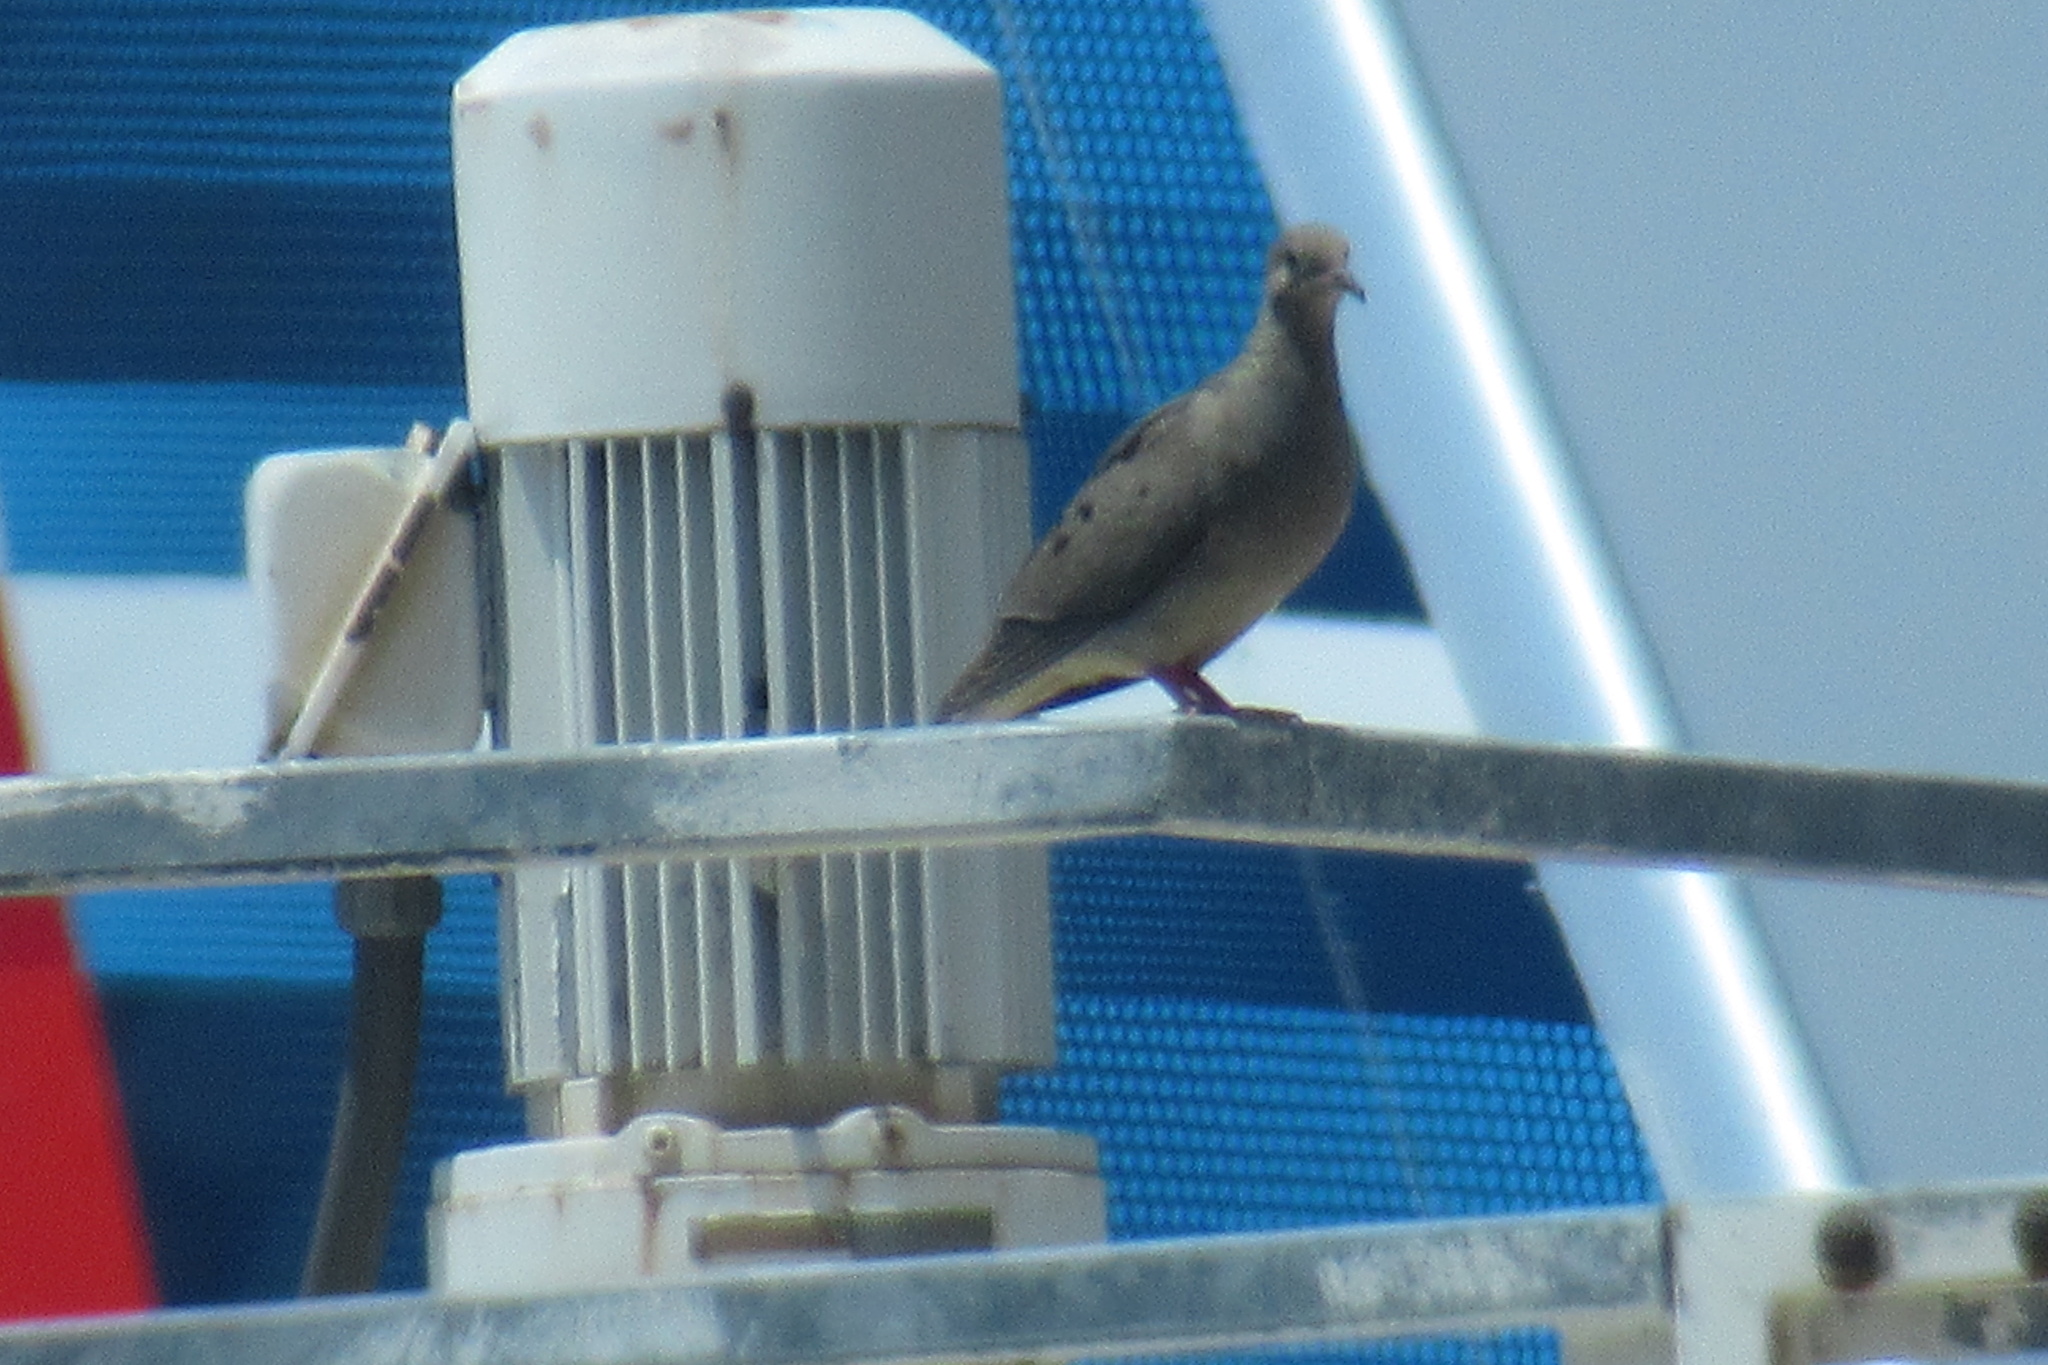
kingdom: Animalia
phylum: Chordata
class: Aves
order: Columbiformes
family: Columbidae
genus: Zenaida
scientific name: Zenaida macroura
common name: Mourning dove
